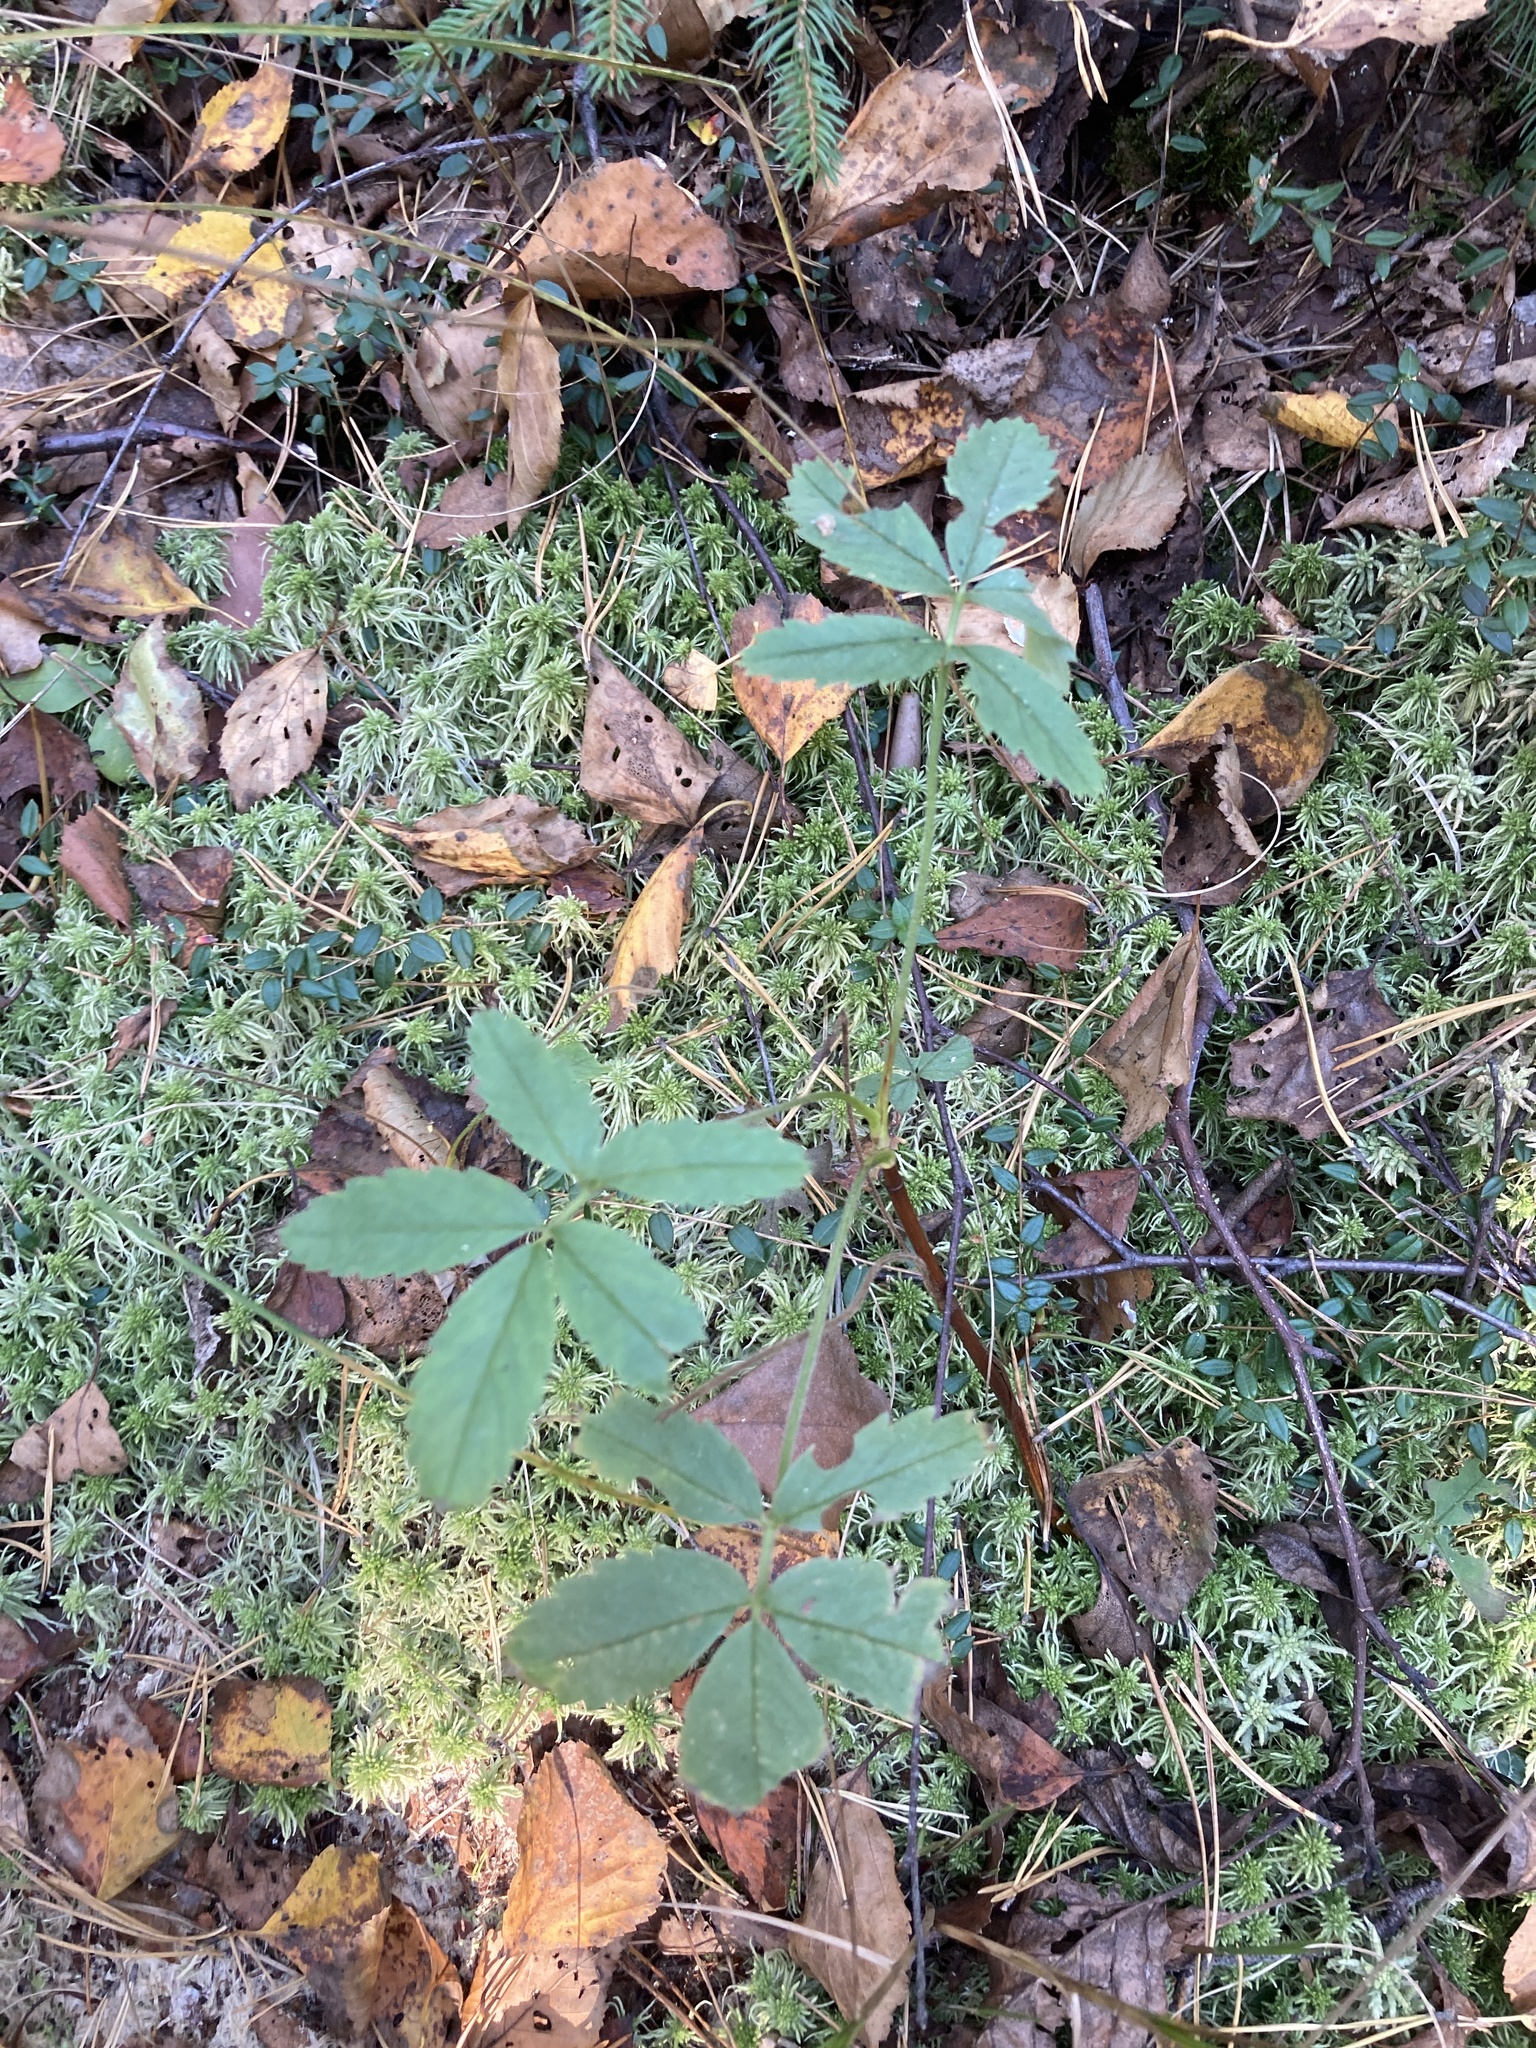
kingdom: Plantae
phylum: Tracheophyta
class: Magnoliopsida
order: Rosales
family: Rosaceae
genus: Comarum
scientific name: Comarum palustre
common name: Marsh cinquefoil
